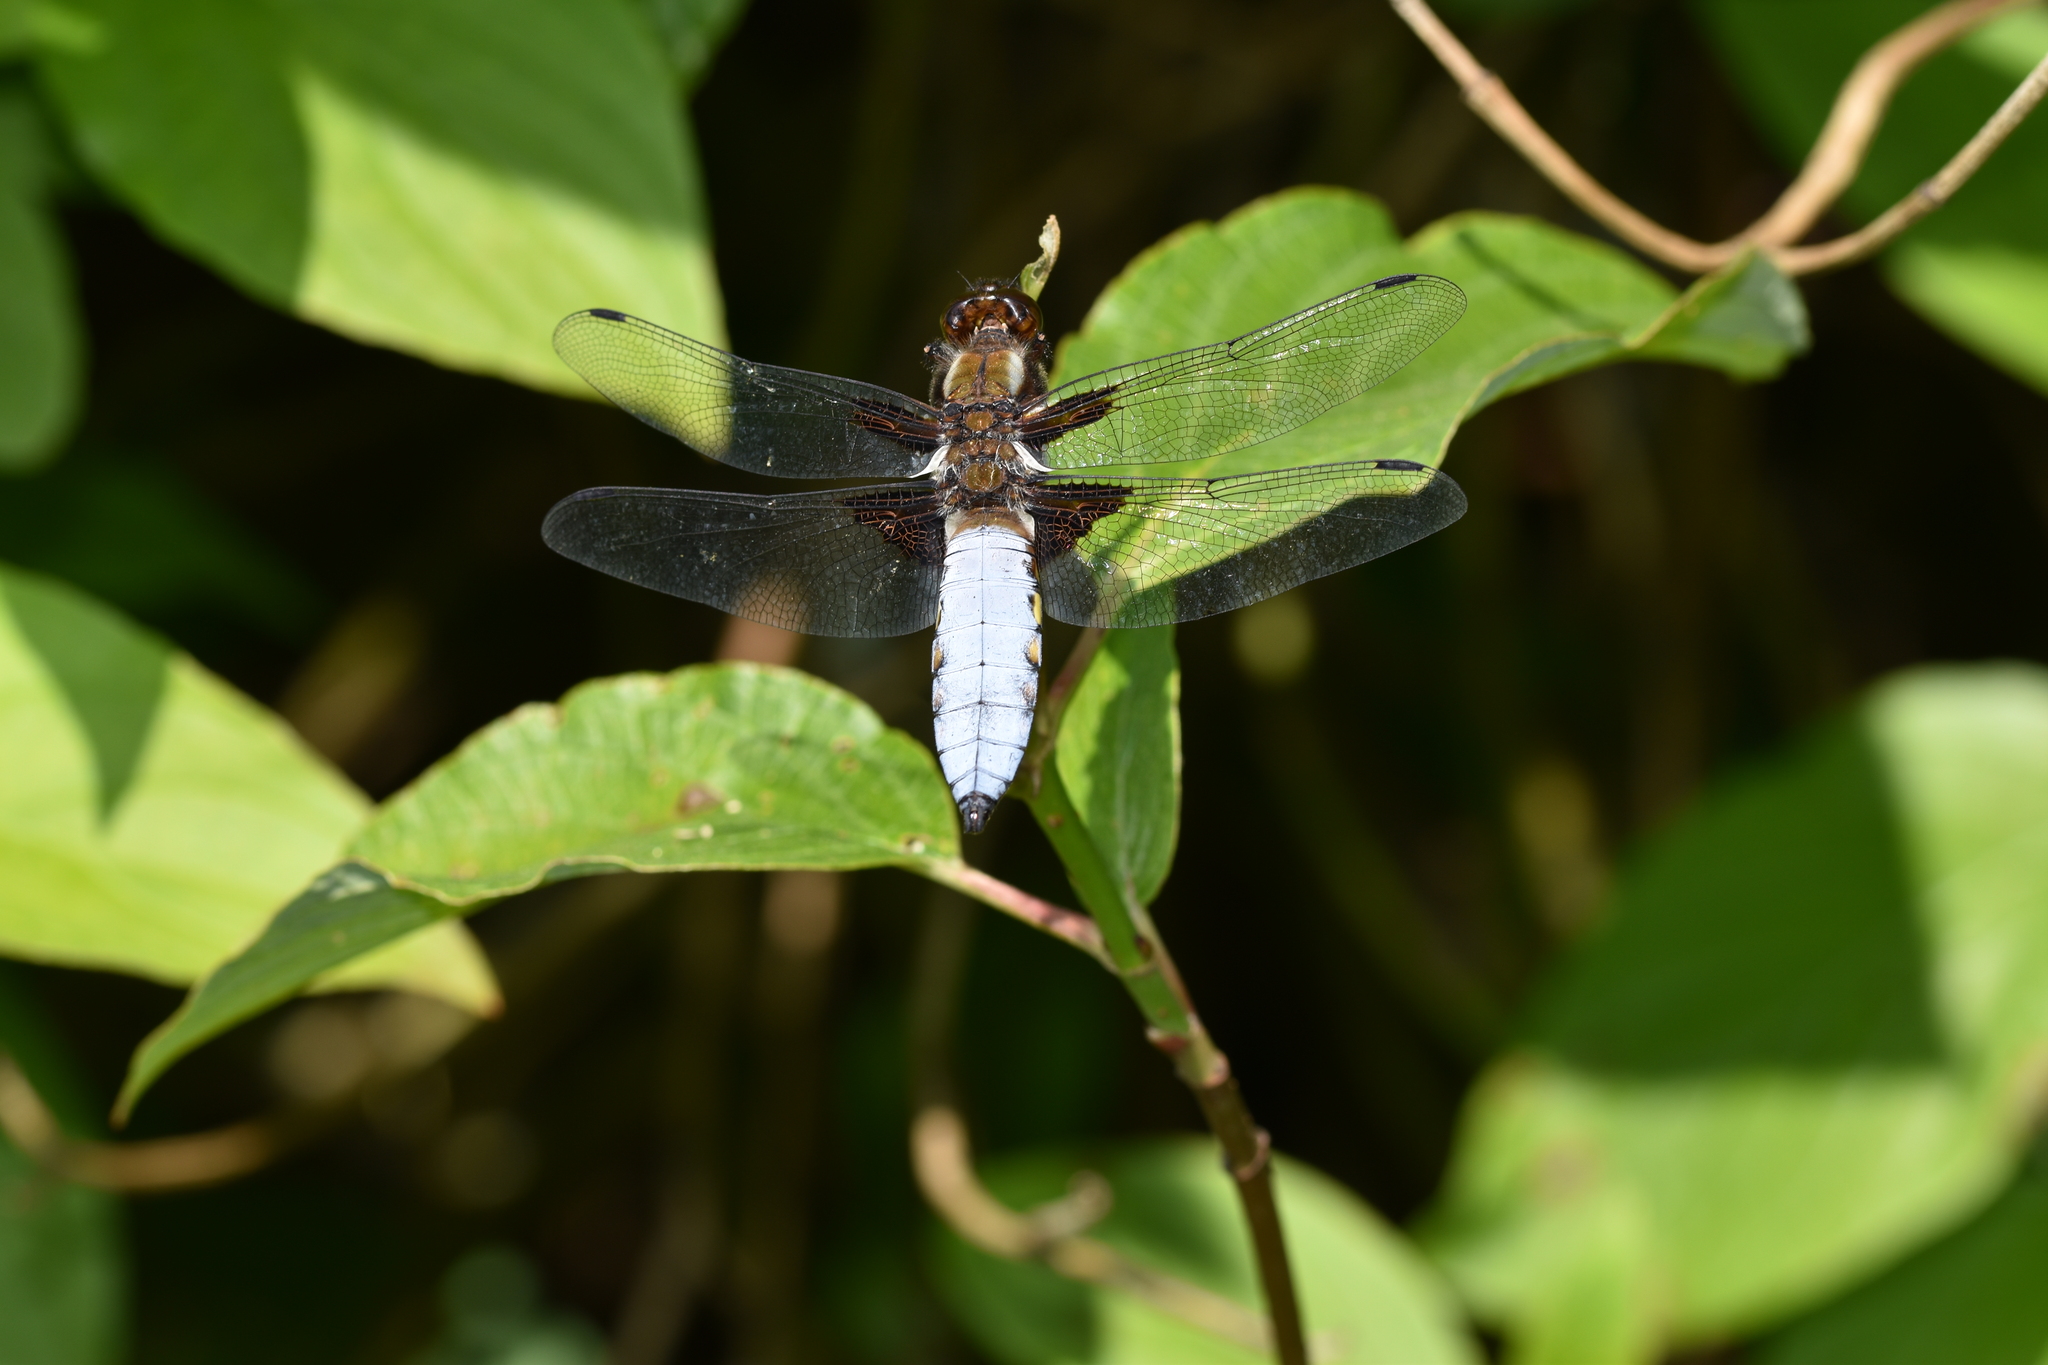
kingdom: Animalia
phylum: Arthropoda
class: Insecta
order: Odonata
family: Libellulidae
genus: Libellula
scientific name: Libellula depressa
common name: Broad-bodied chaser
